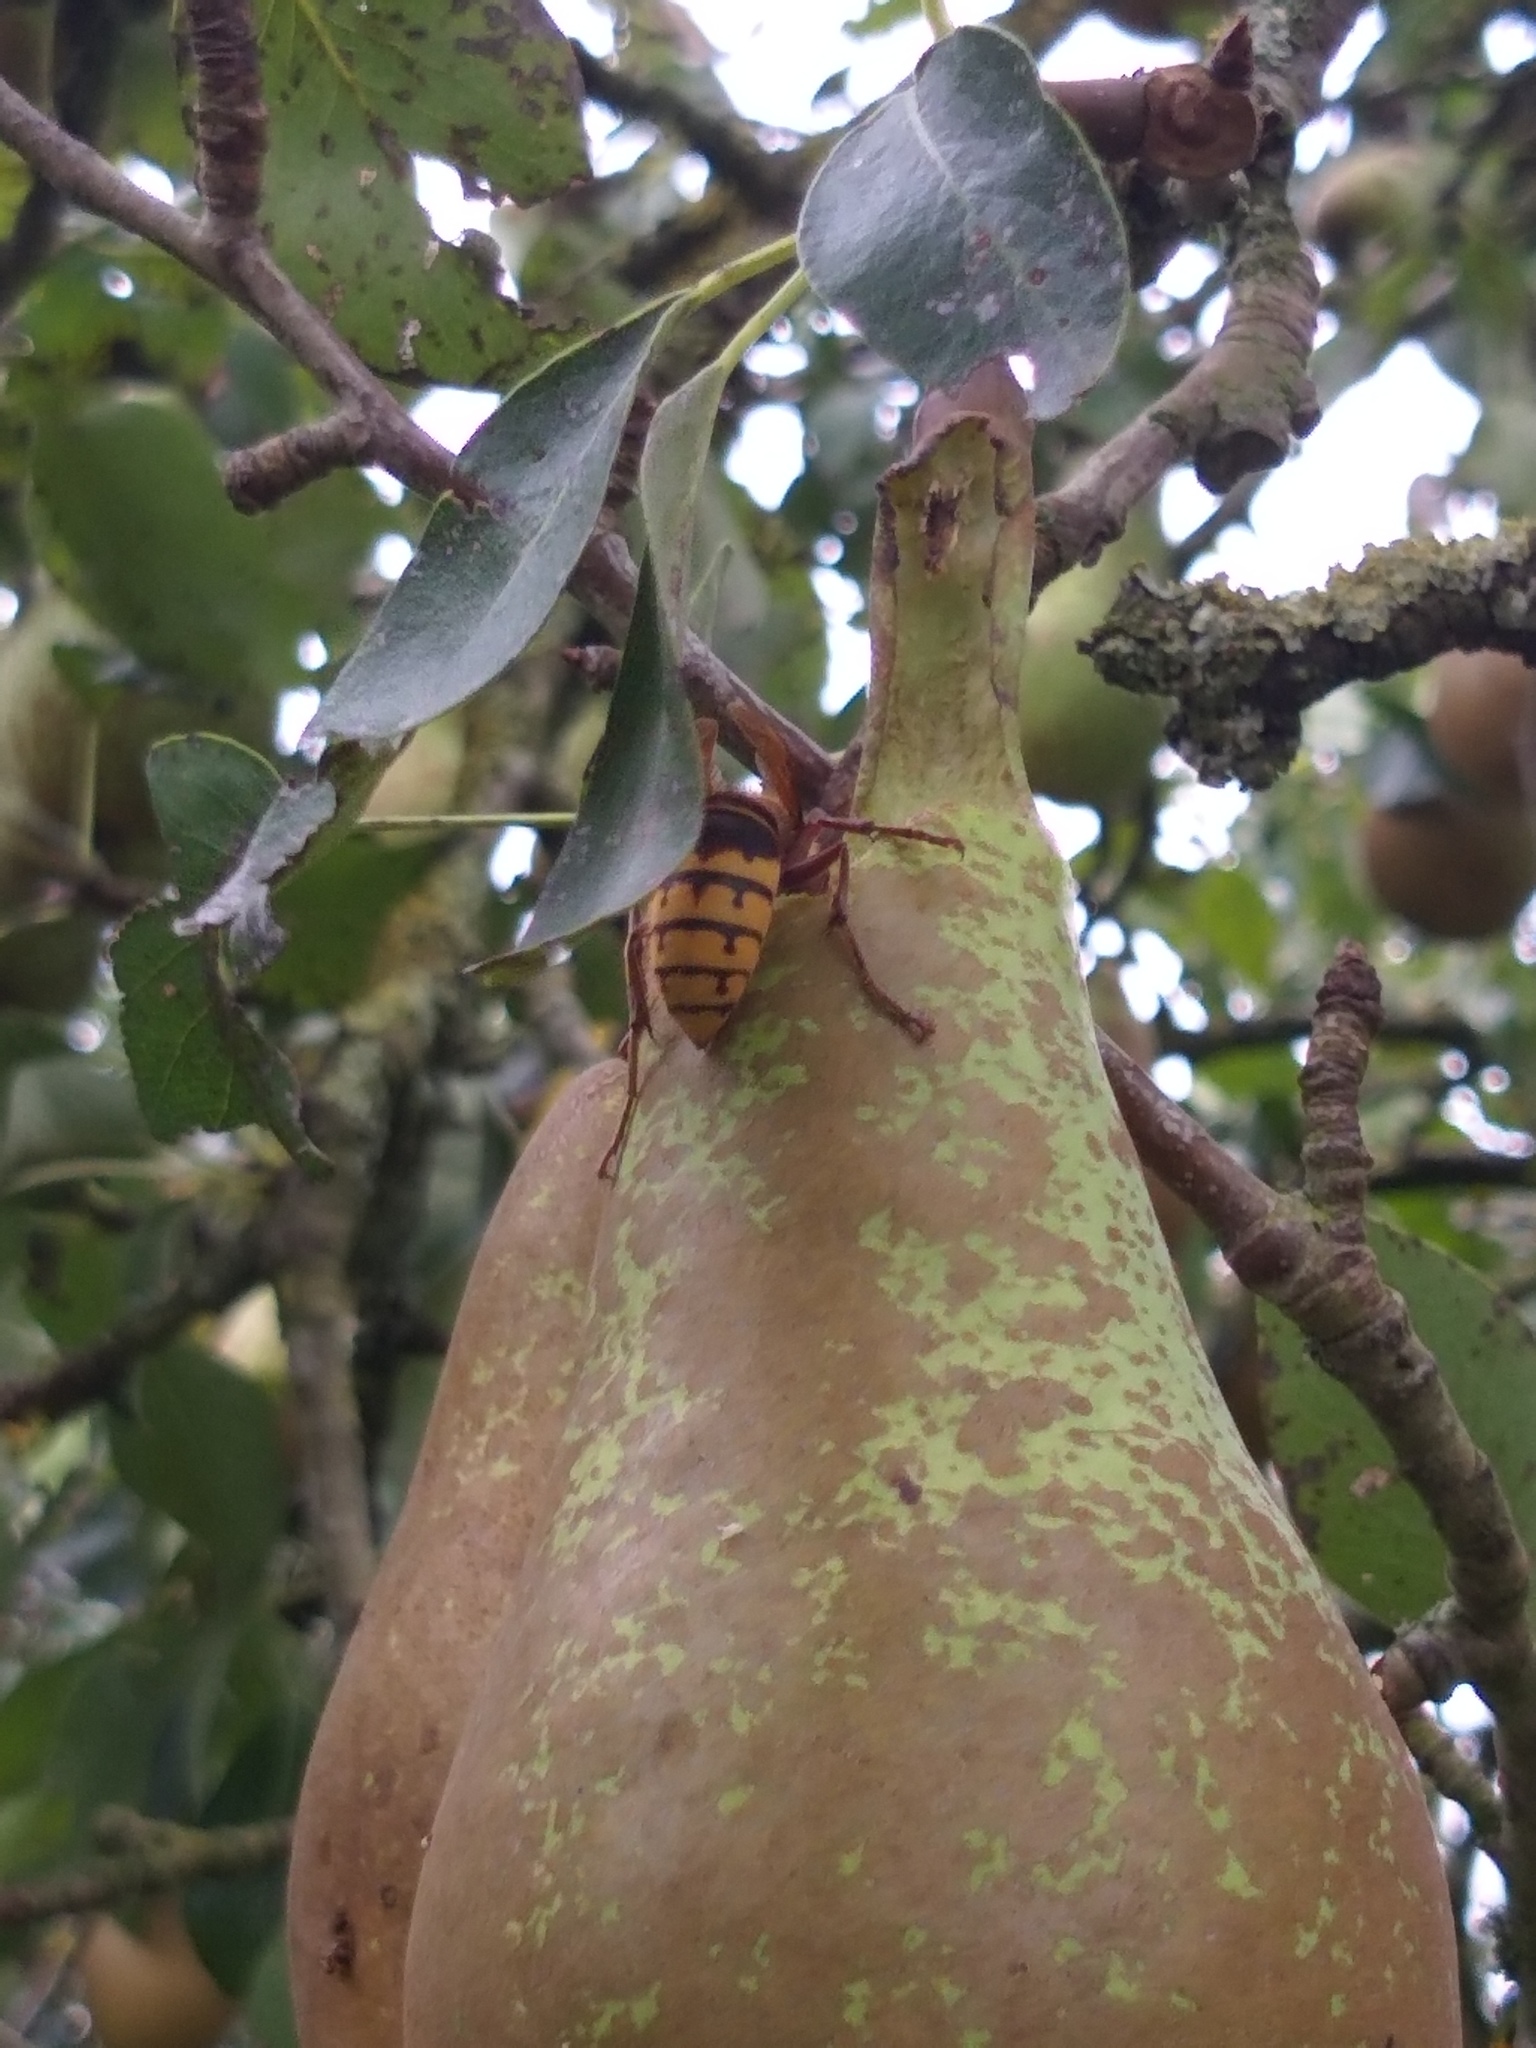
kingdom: Animalia
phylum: Arthropoda
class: Insecta
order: Hymenoptera
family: Vespidae
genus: Vespa
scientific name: Vespa crabro
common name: Hornet
